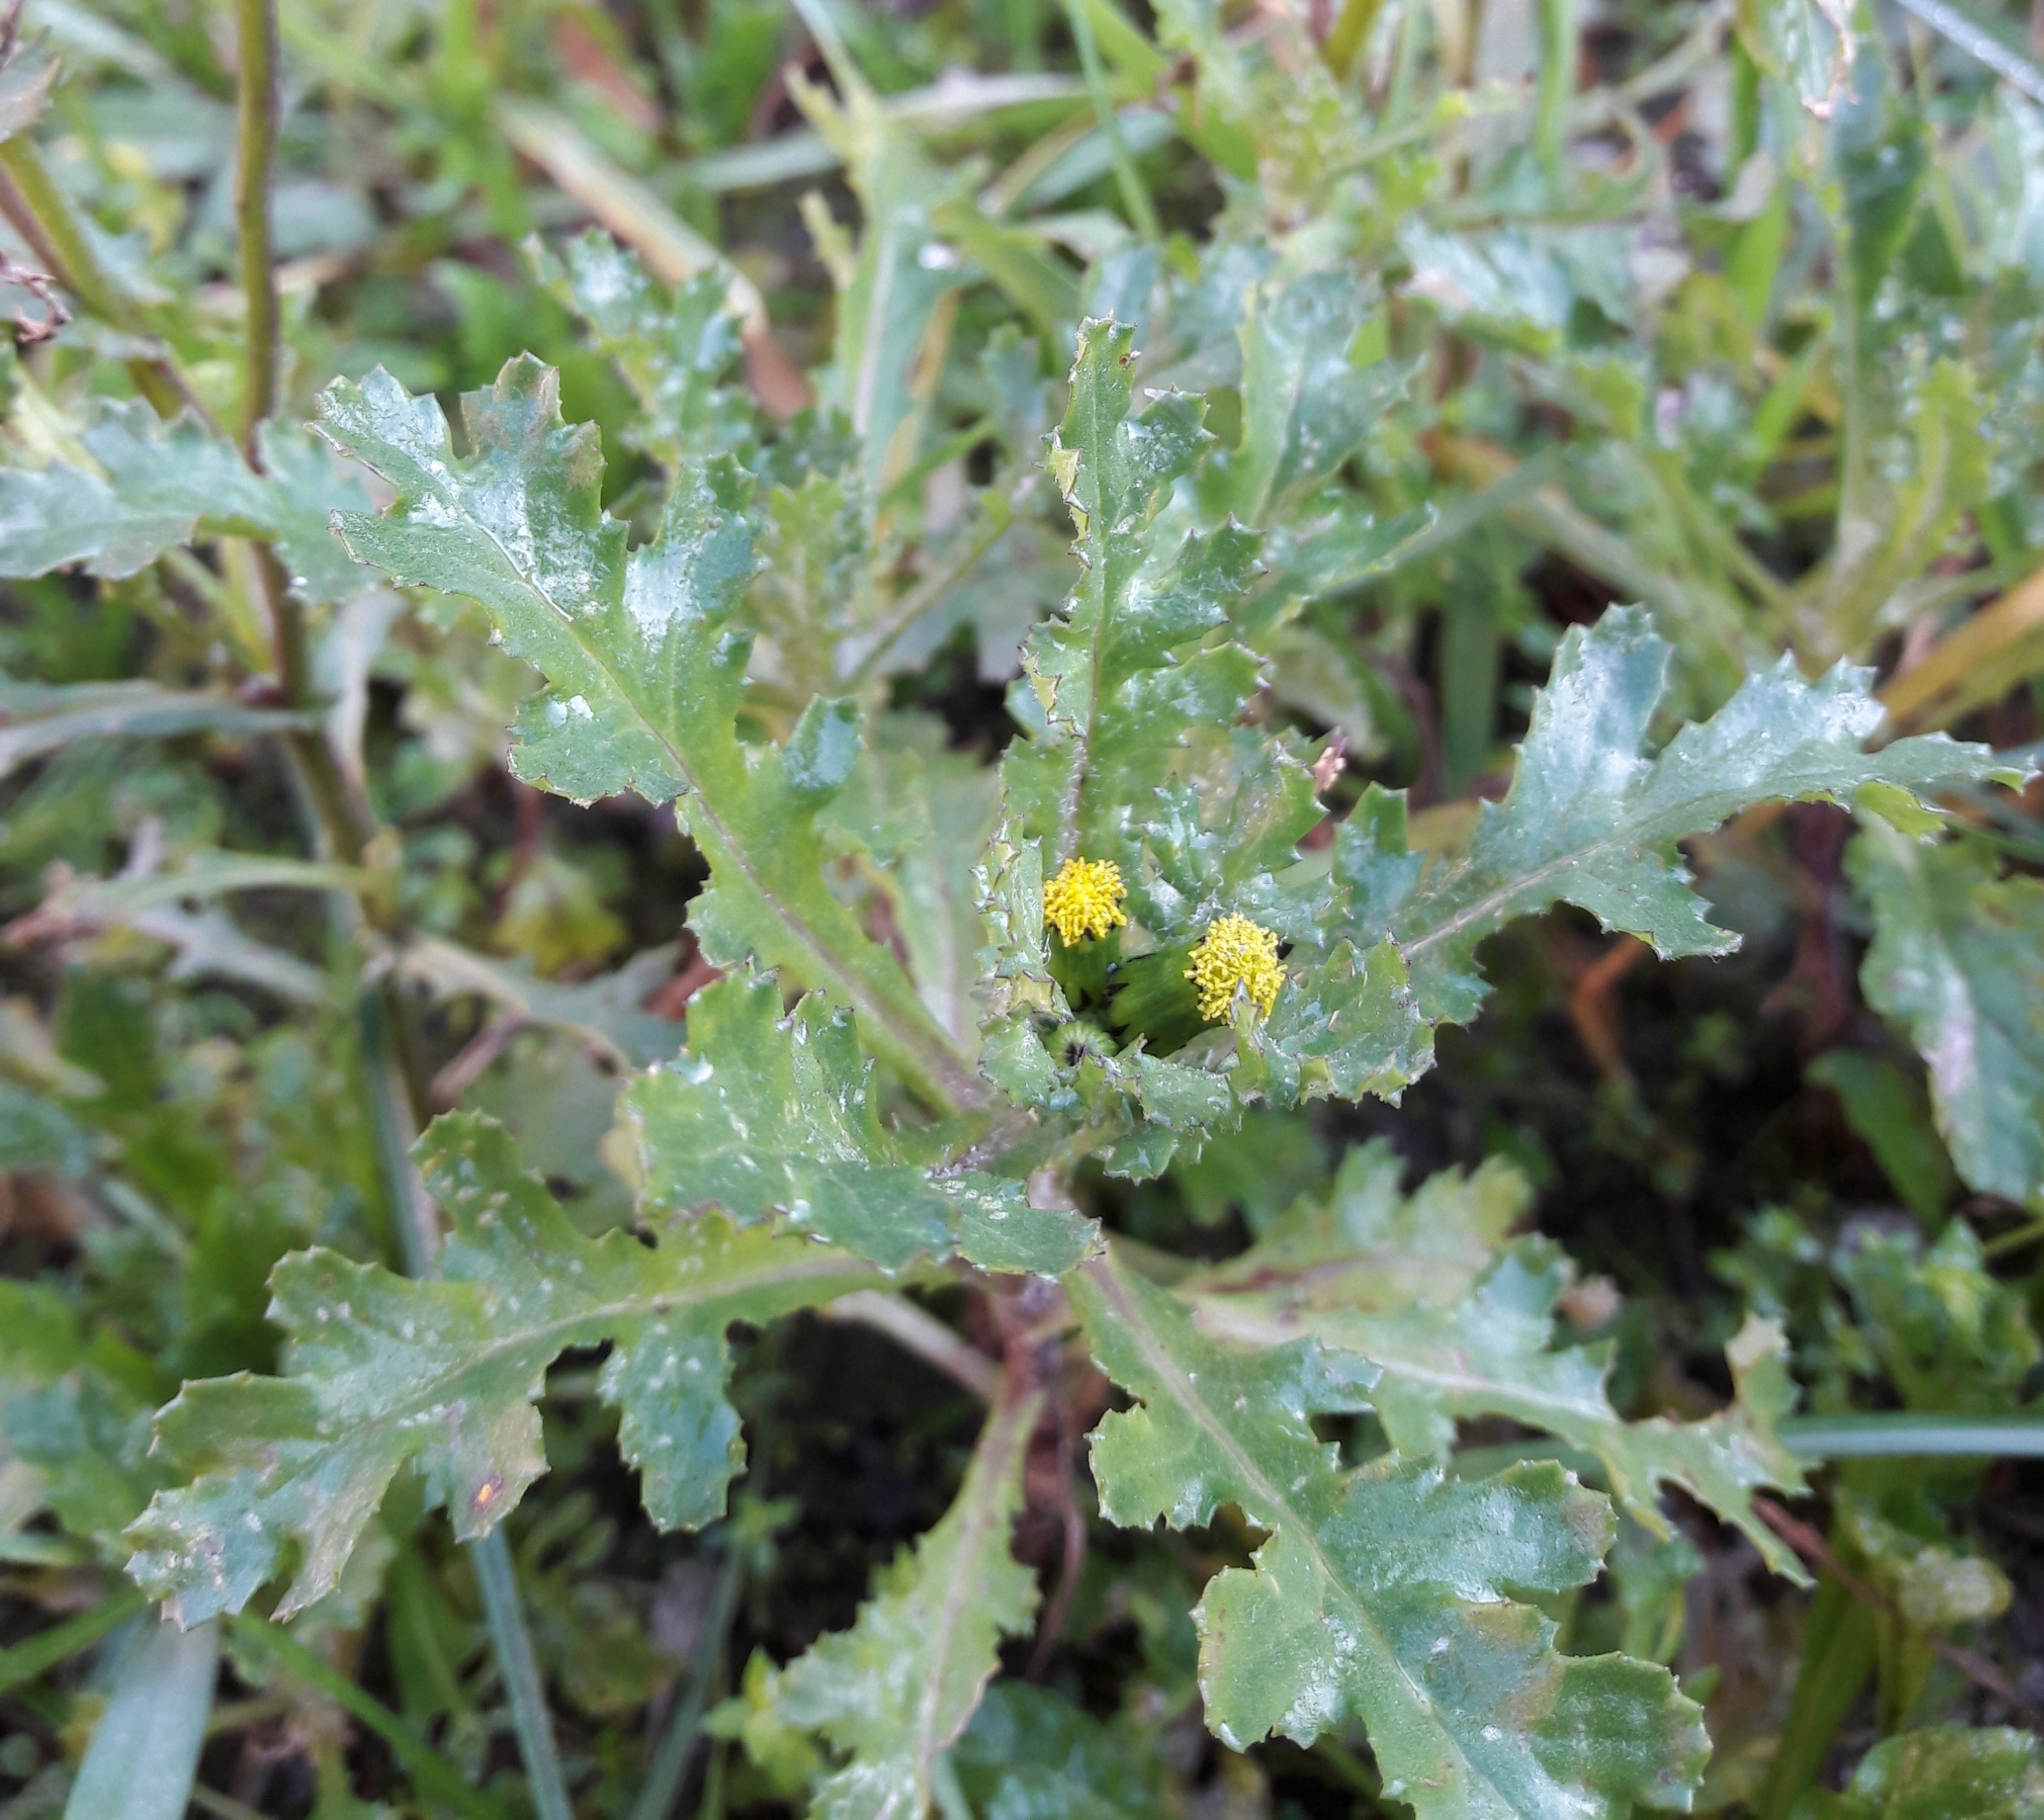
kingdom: Plantae
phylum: Tracheophyta
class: Magnoliopsida
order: Asterales
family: Asteraceae
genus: Senecio
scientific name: Senecio vulgaris
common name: Old-man-in-the-spring
